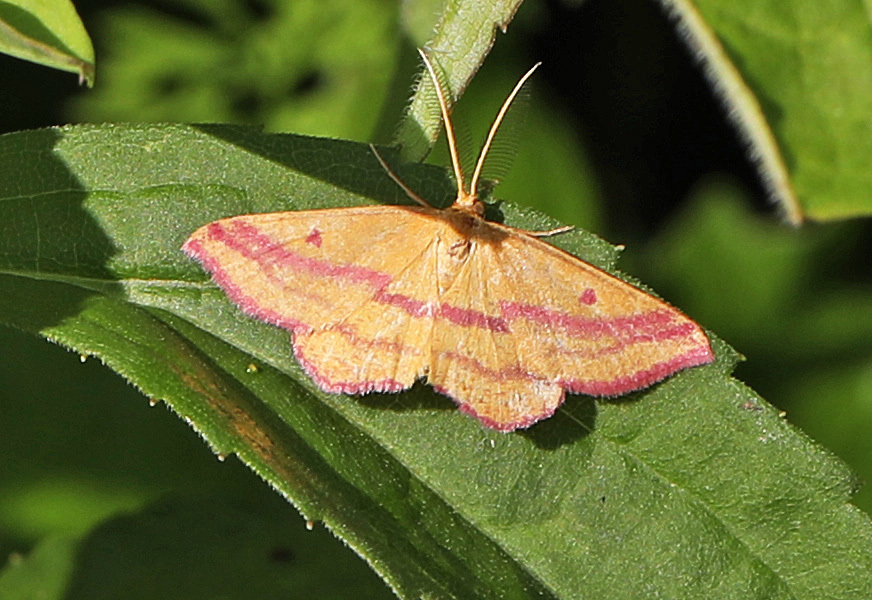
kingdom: Animalia
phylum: Arthropoda
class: Insecta
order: Lepidoptera
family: Geometridae
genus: Haematopis
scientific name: Haematopis grataria
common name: Chickweed geometer
